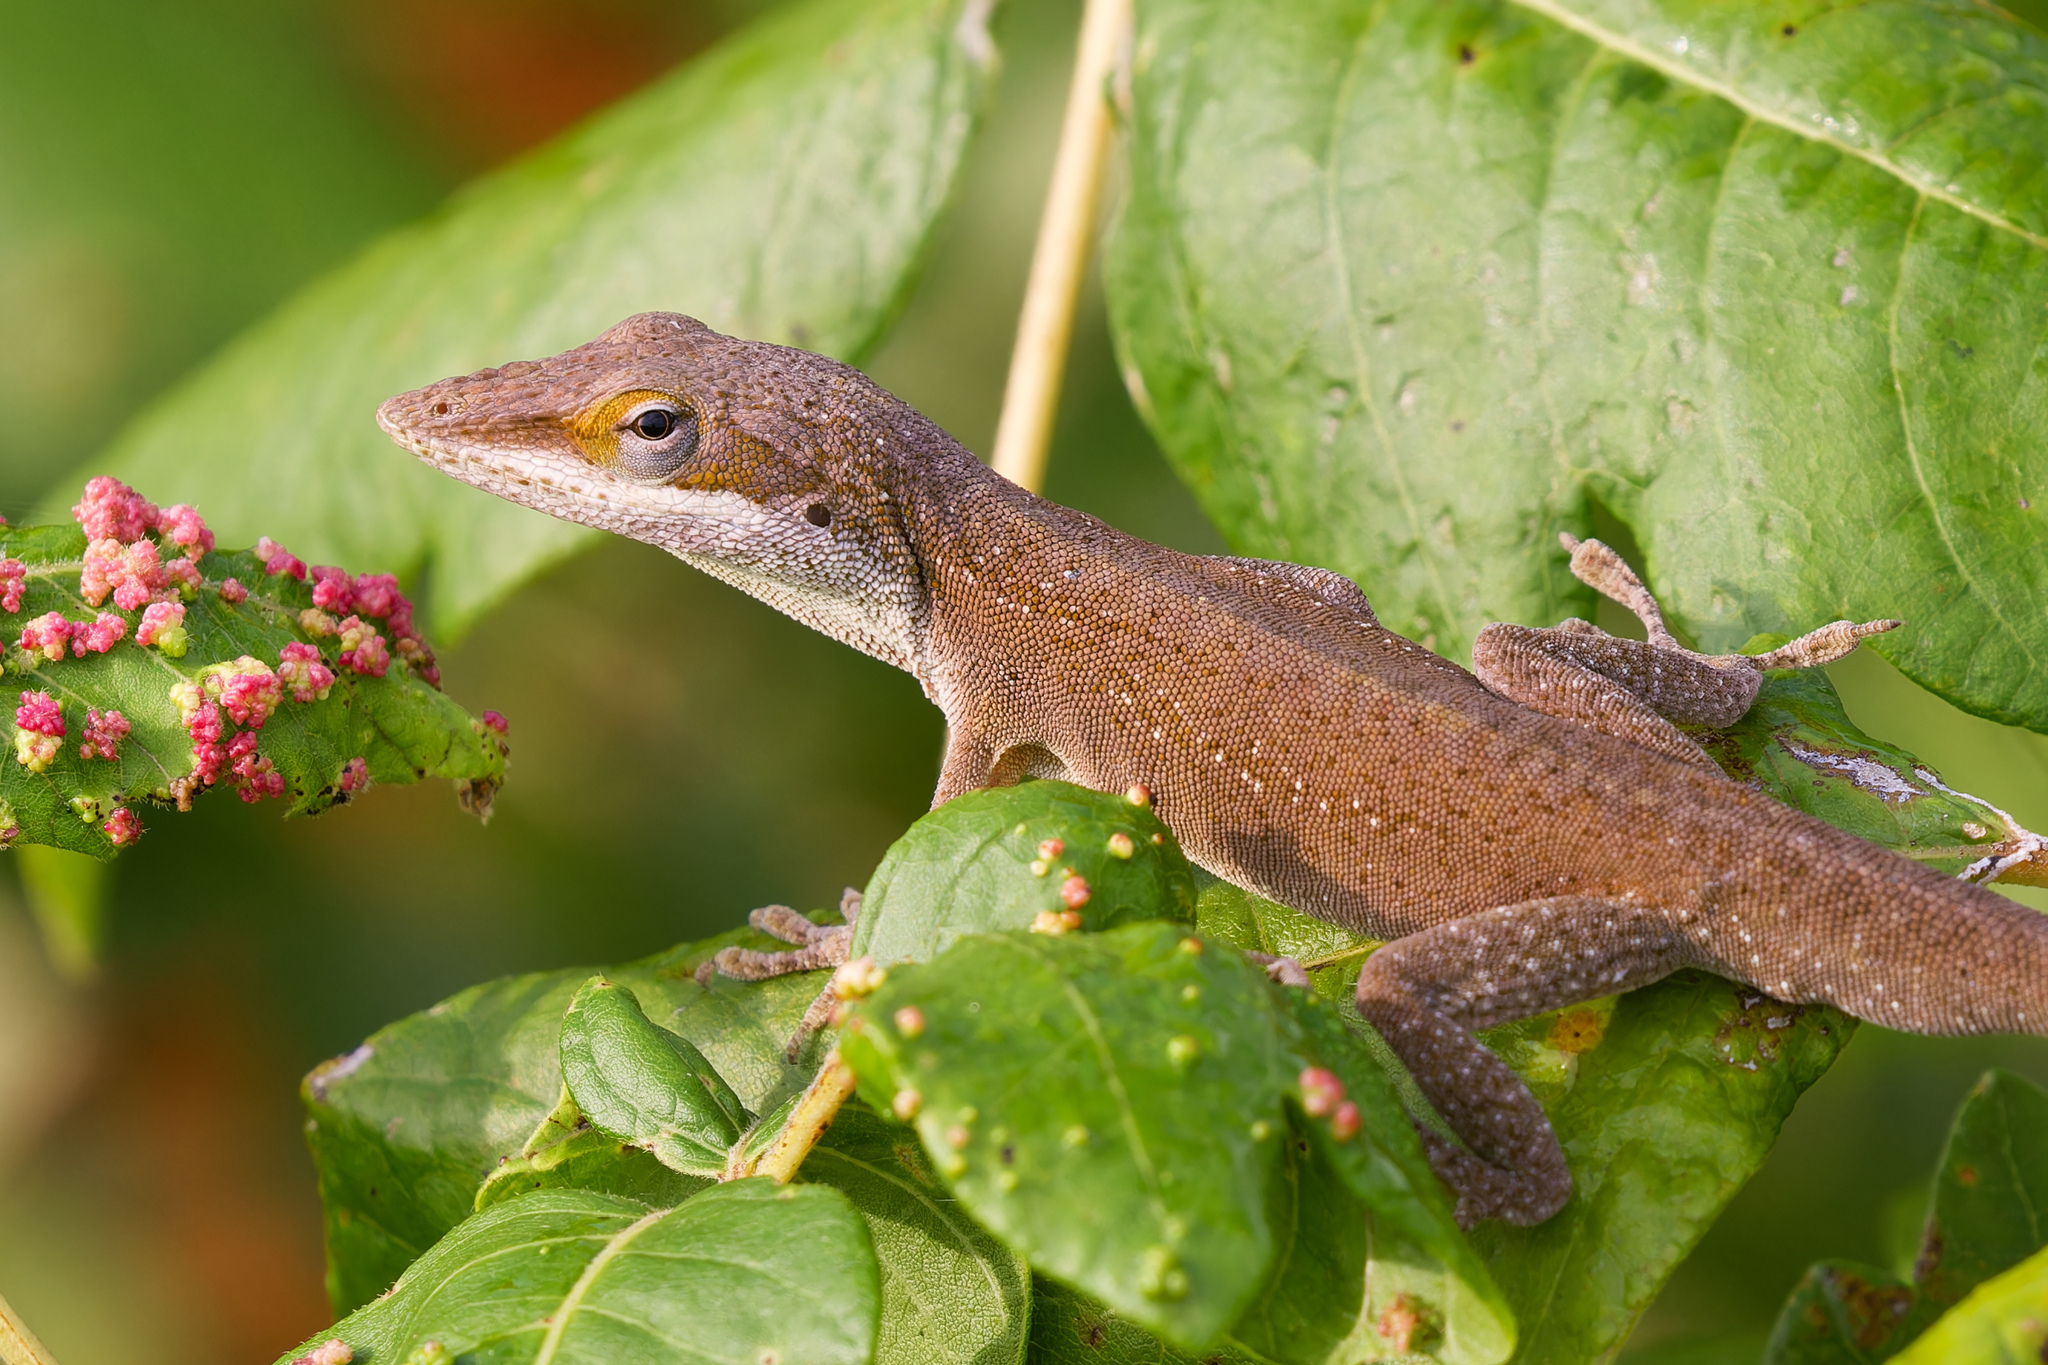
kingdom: Animalia
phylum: Chordata
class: Squamata
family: Dactyloidae
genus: Anolis
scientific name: Anolis carolinensis
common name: Green anole
